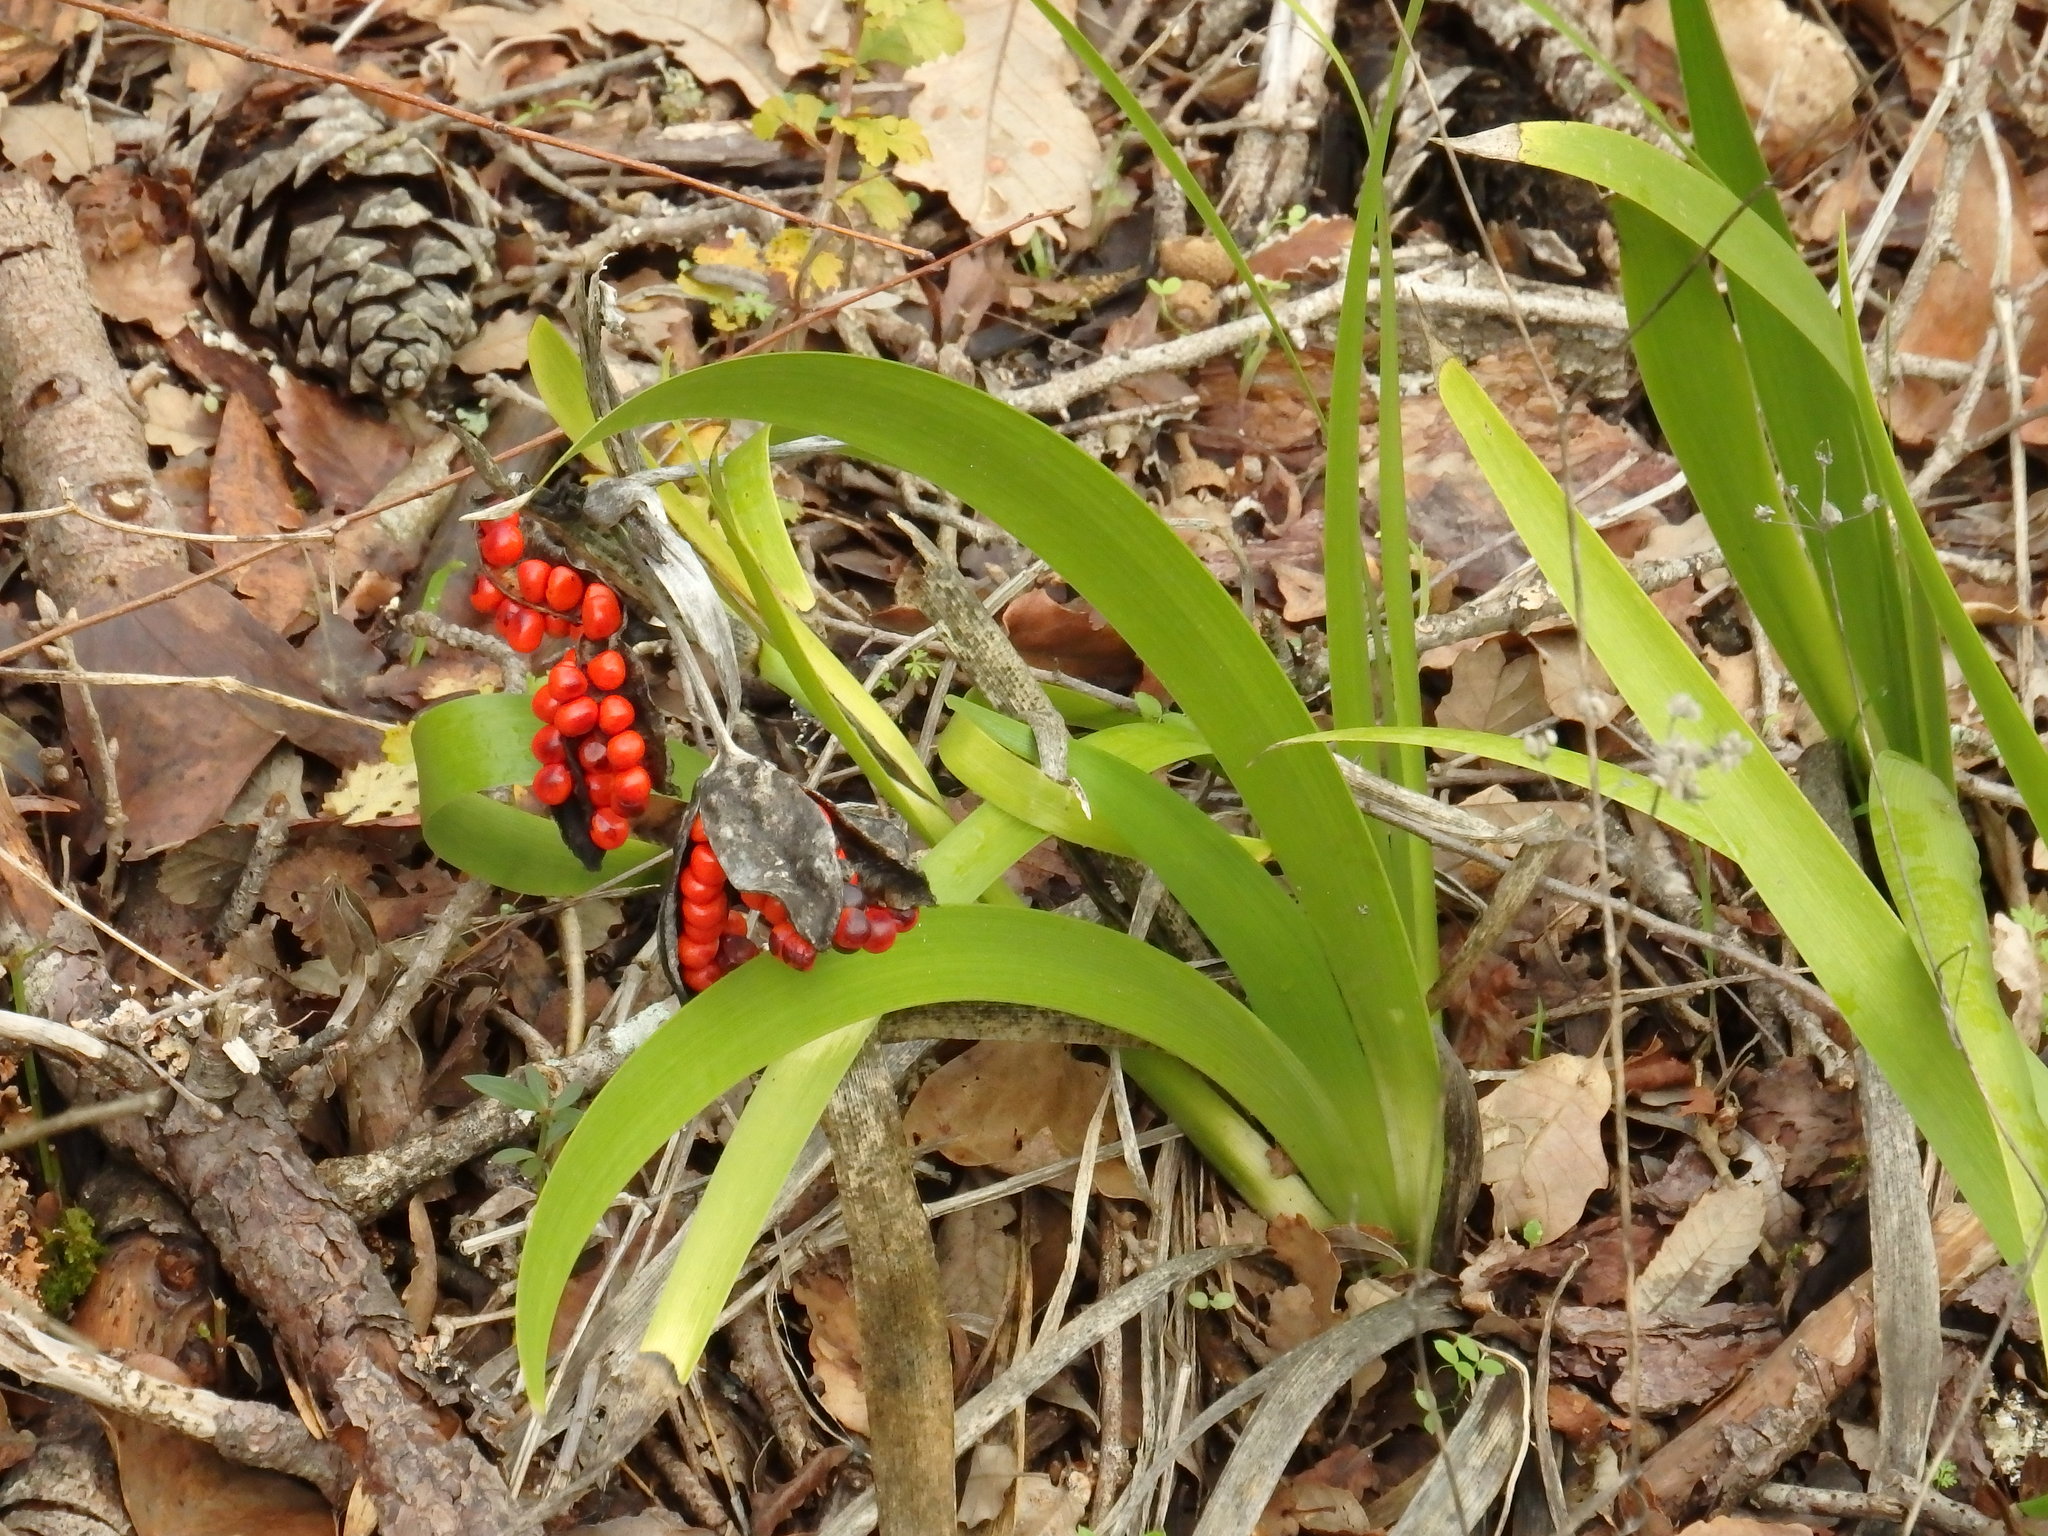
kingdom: Plantae
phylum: Tracheophyta
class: Liliopsida
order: Asparagales
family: Iridaceae
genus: Iris
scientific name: Iris foetidissima
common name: Stinking iris
